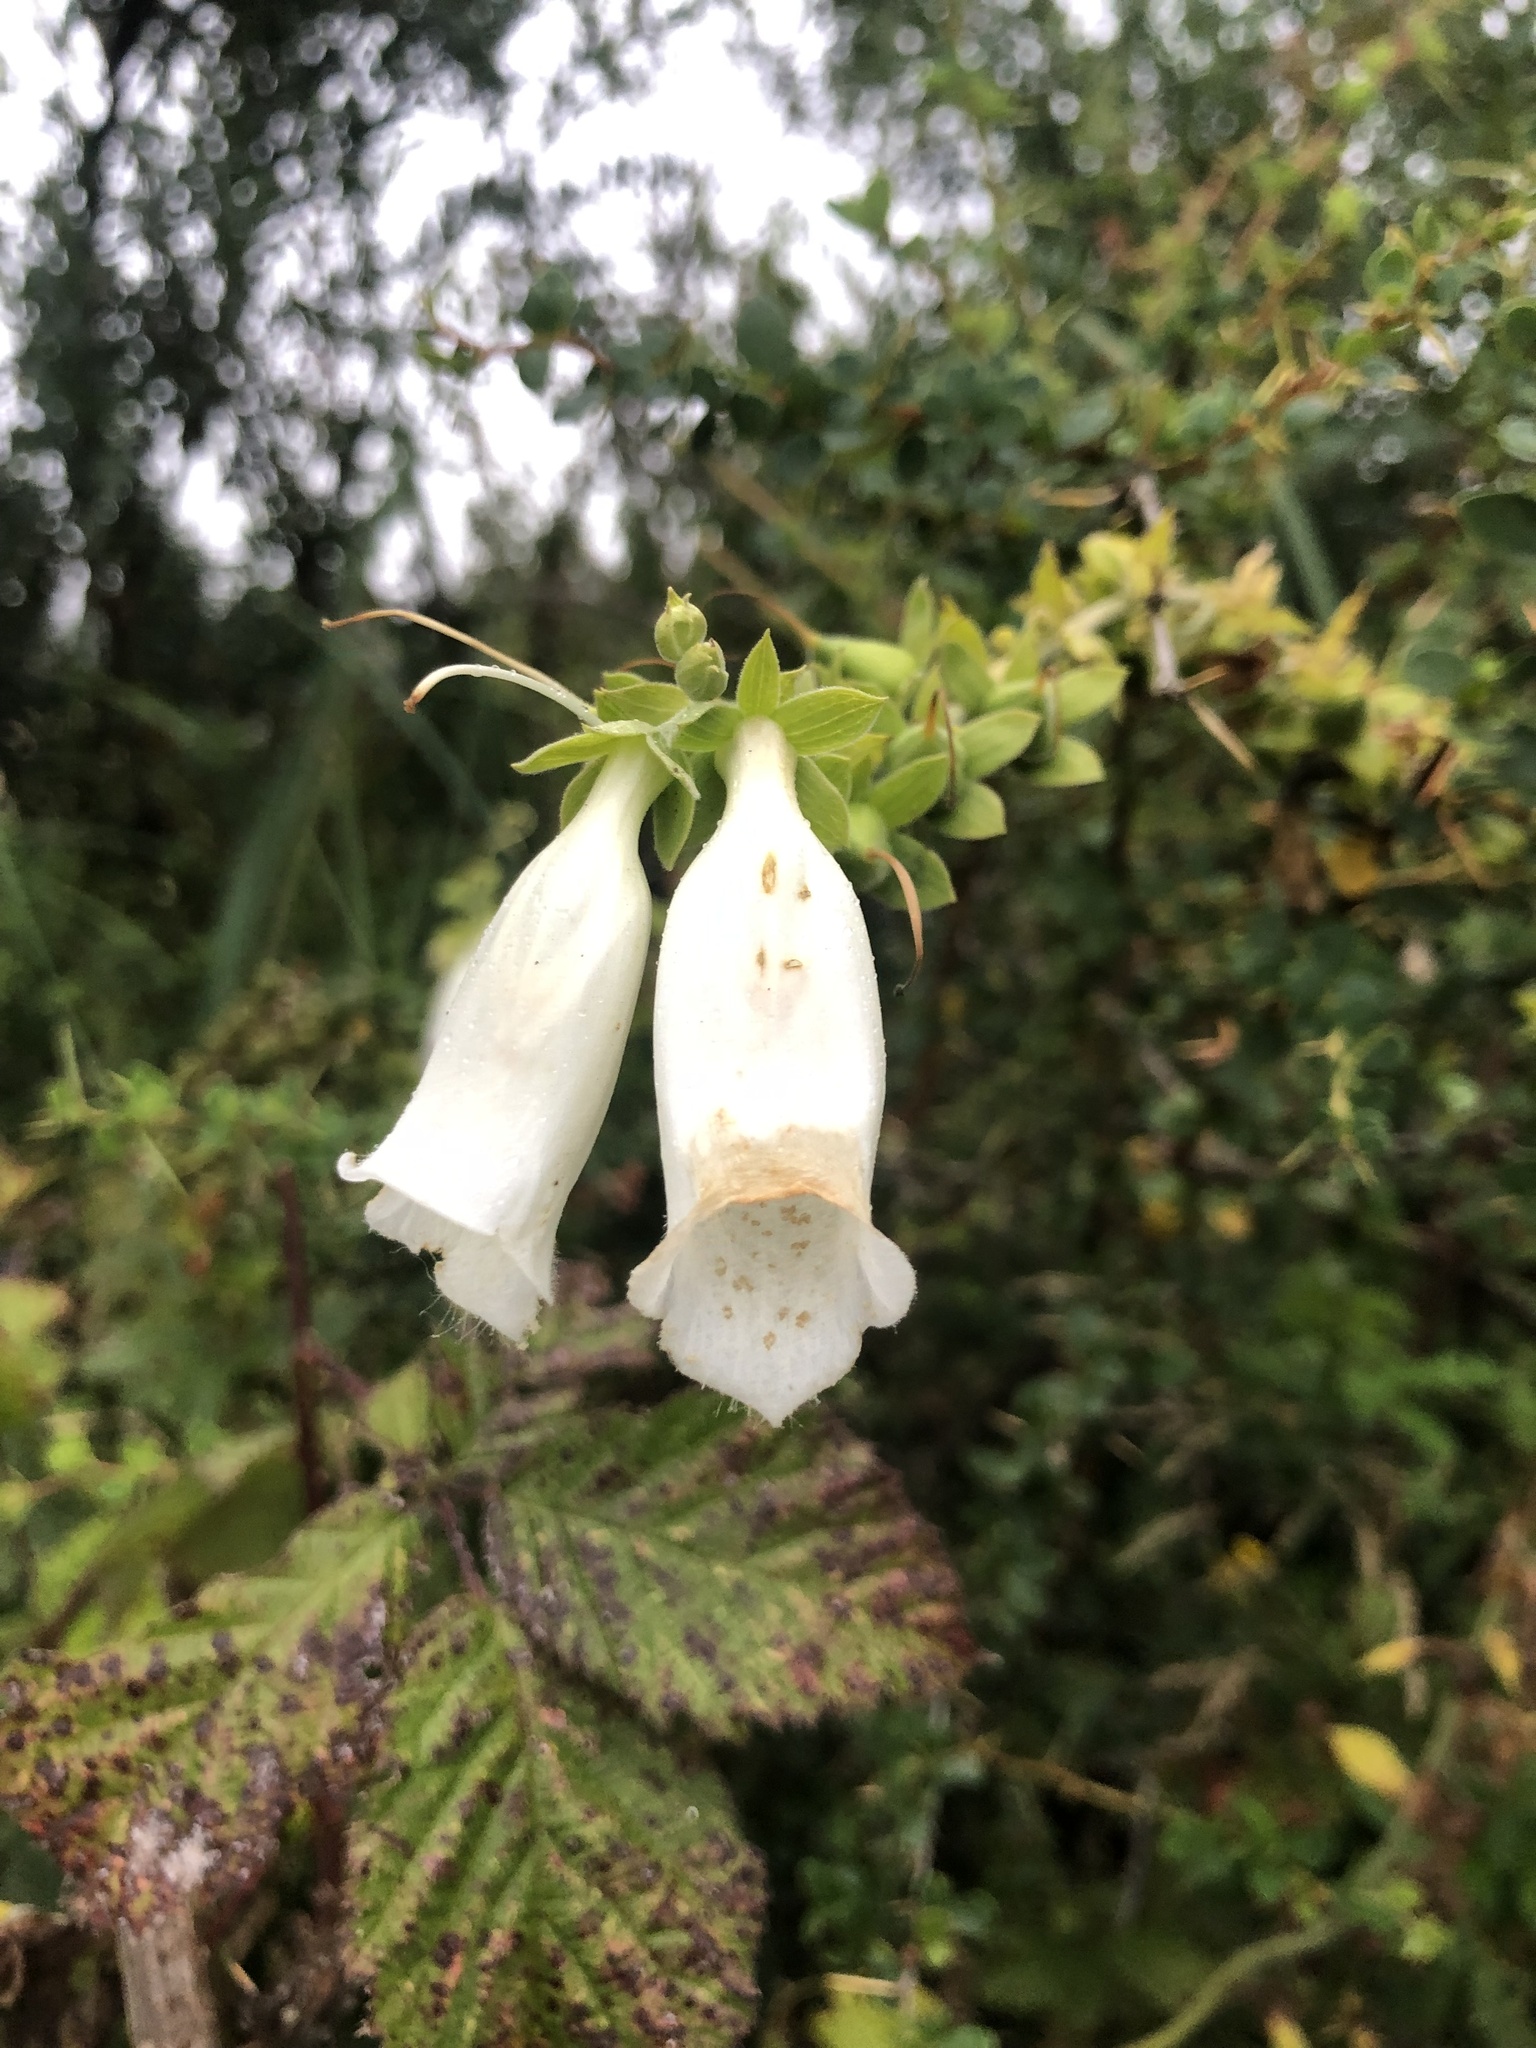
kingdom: Plantae
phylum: Tracheophyta
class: Magnoliopsida
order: Lamiales
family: Plantaginaceae
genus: Digitalis
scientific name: Digitalis purpurea
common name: Foxglove
